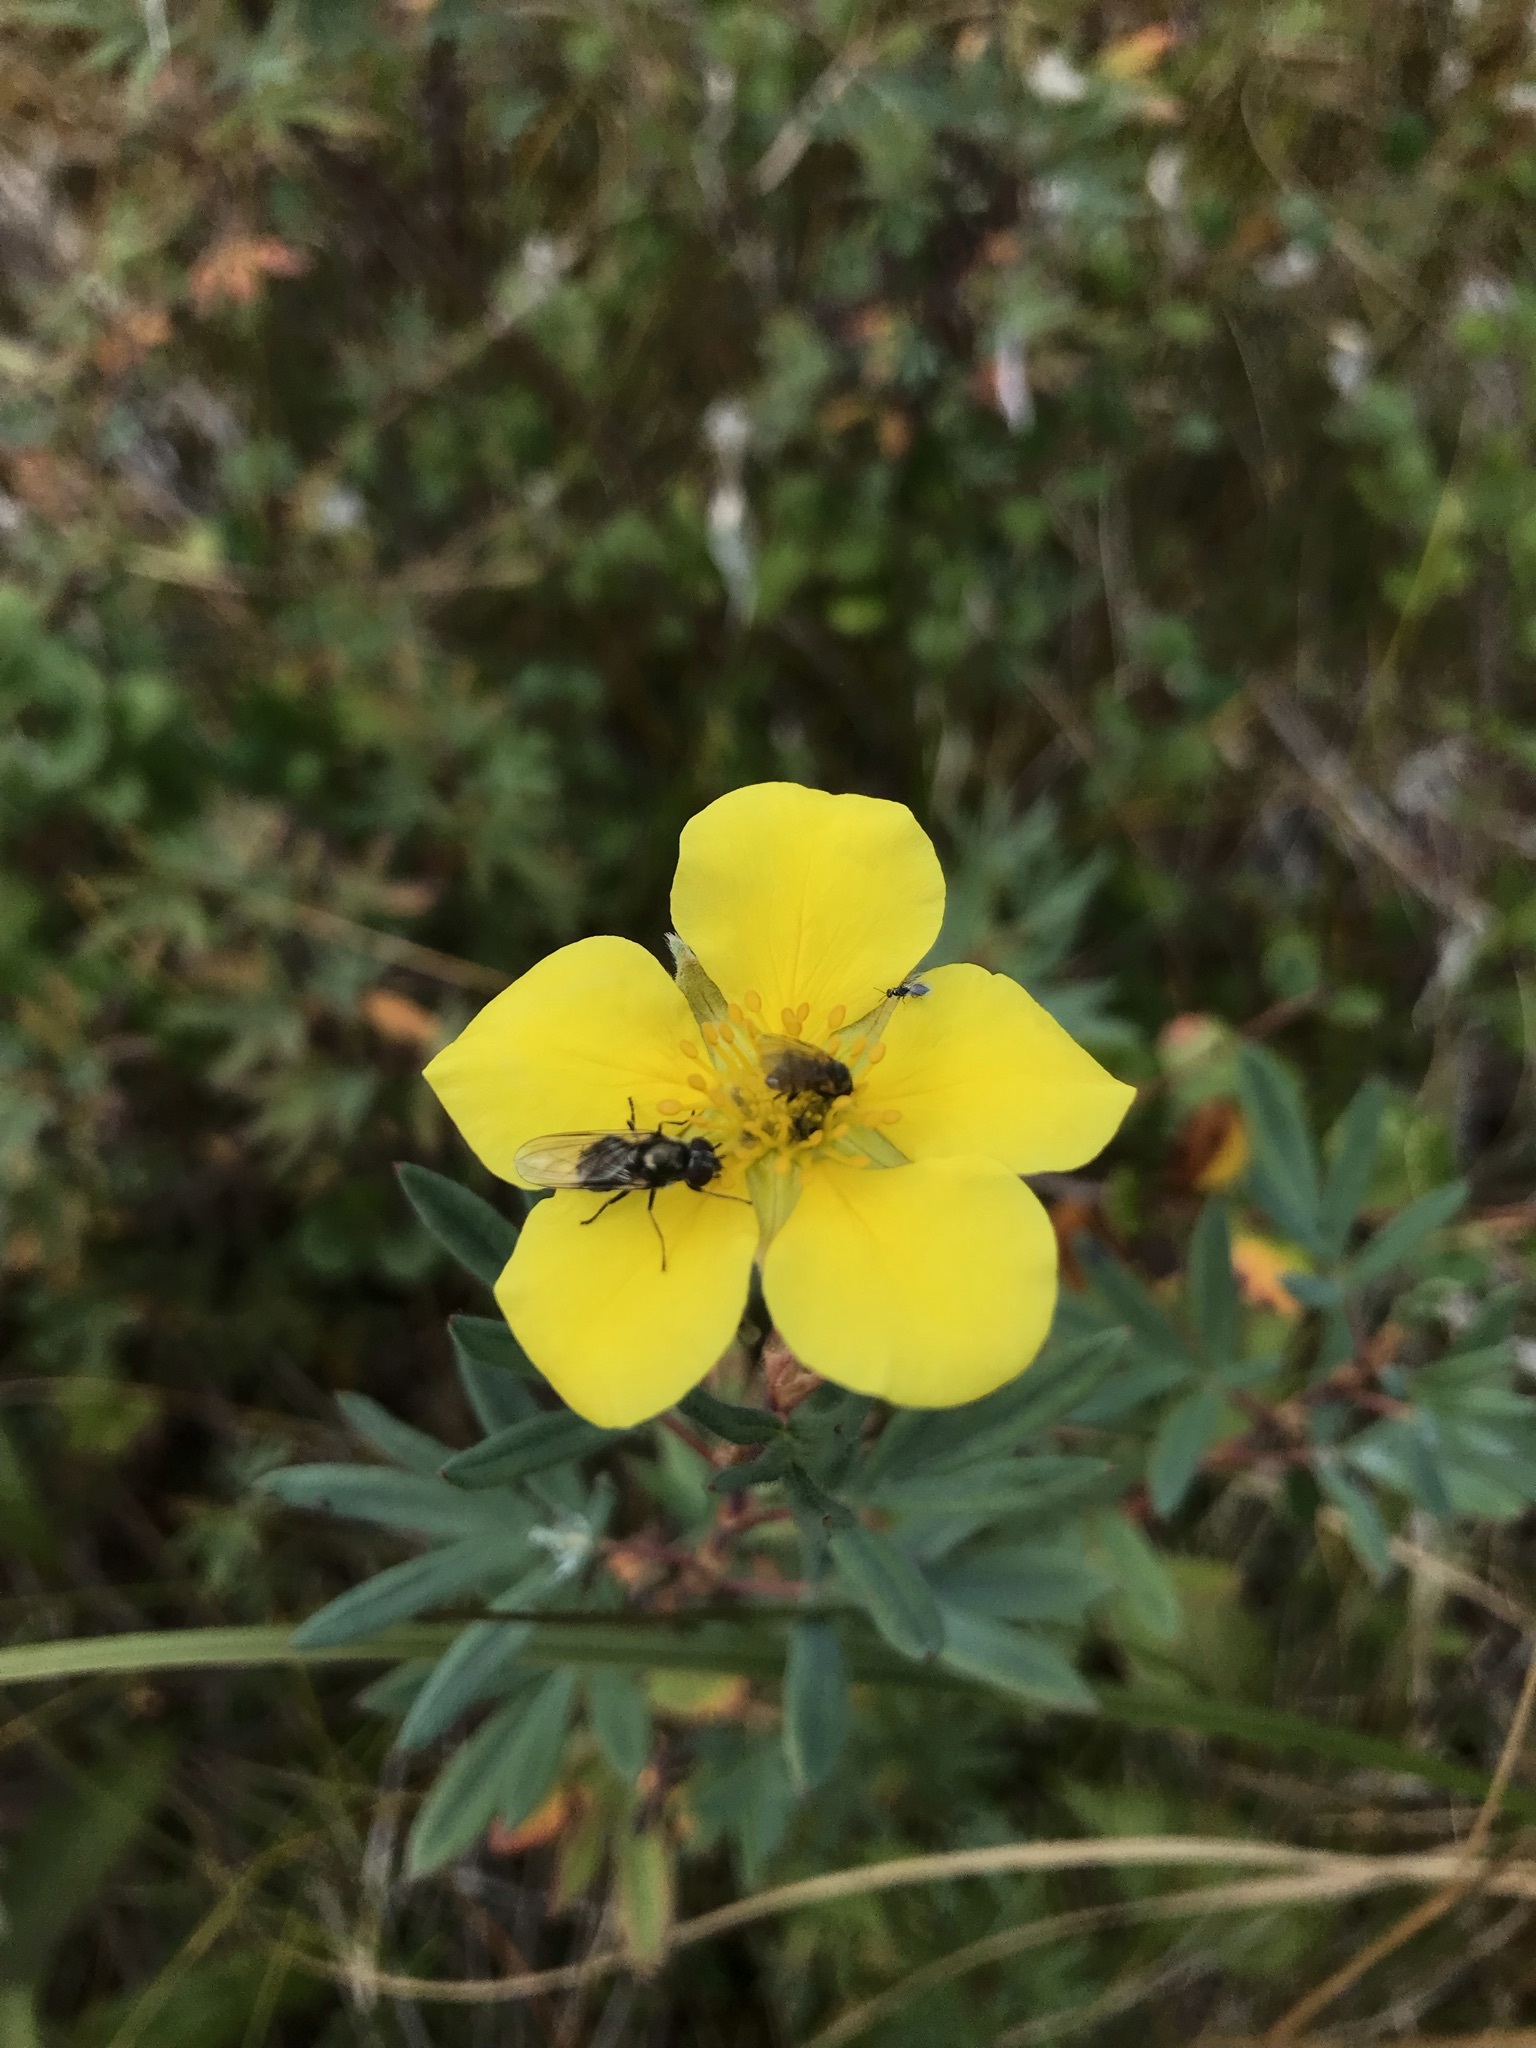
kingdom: Plantae
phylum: Tracheophyta
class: Magnoliopsida
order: Rosales
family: Rosaceae
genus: Dasiphora
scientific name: Dasiphora fruticosa
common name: Shrubby cinquefoil
